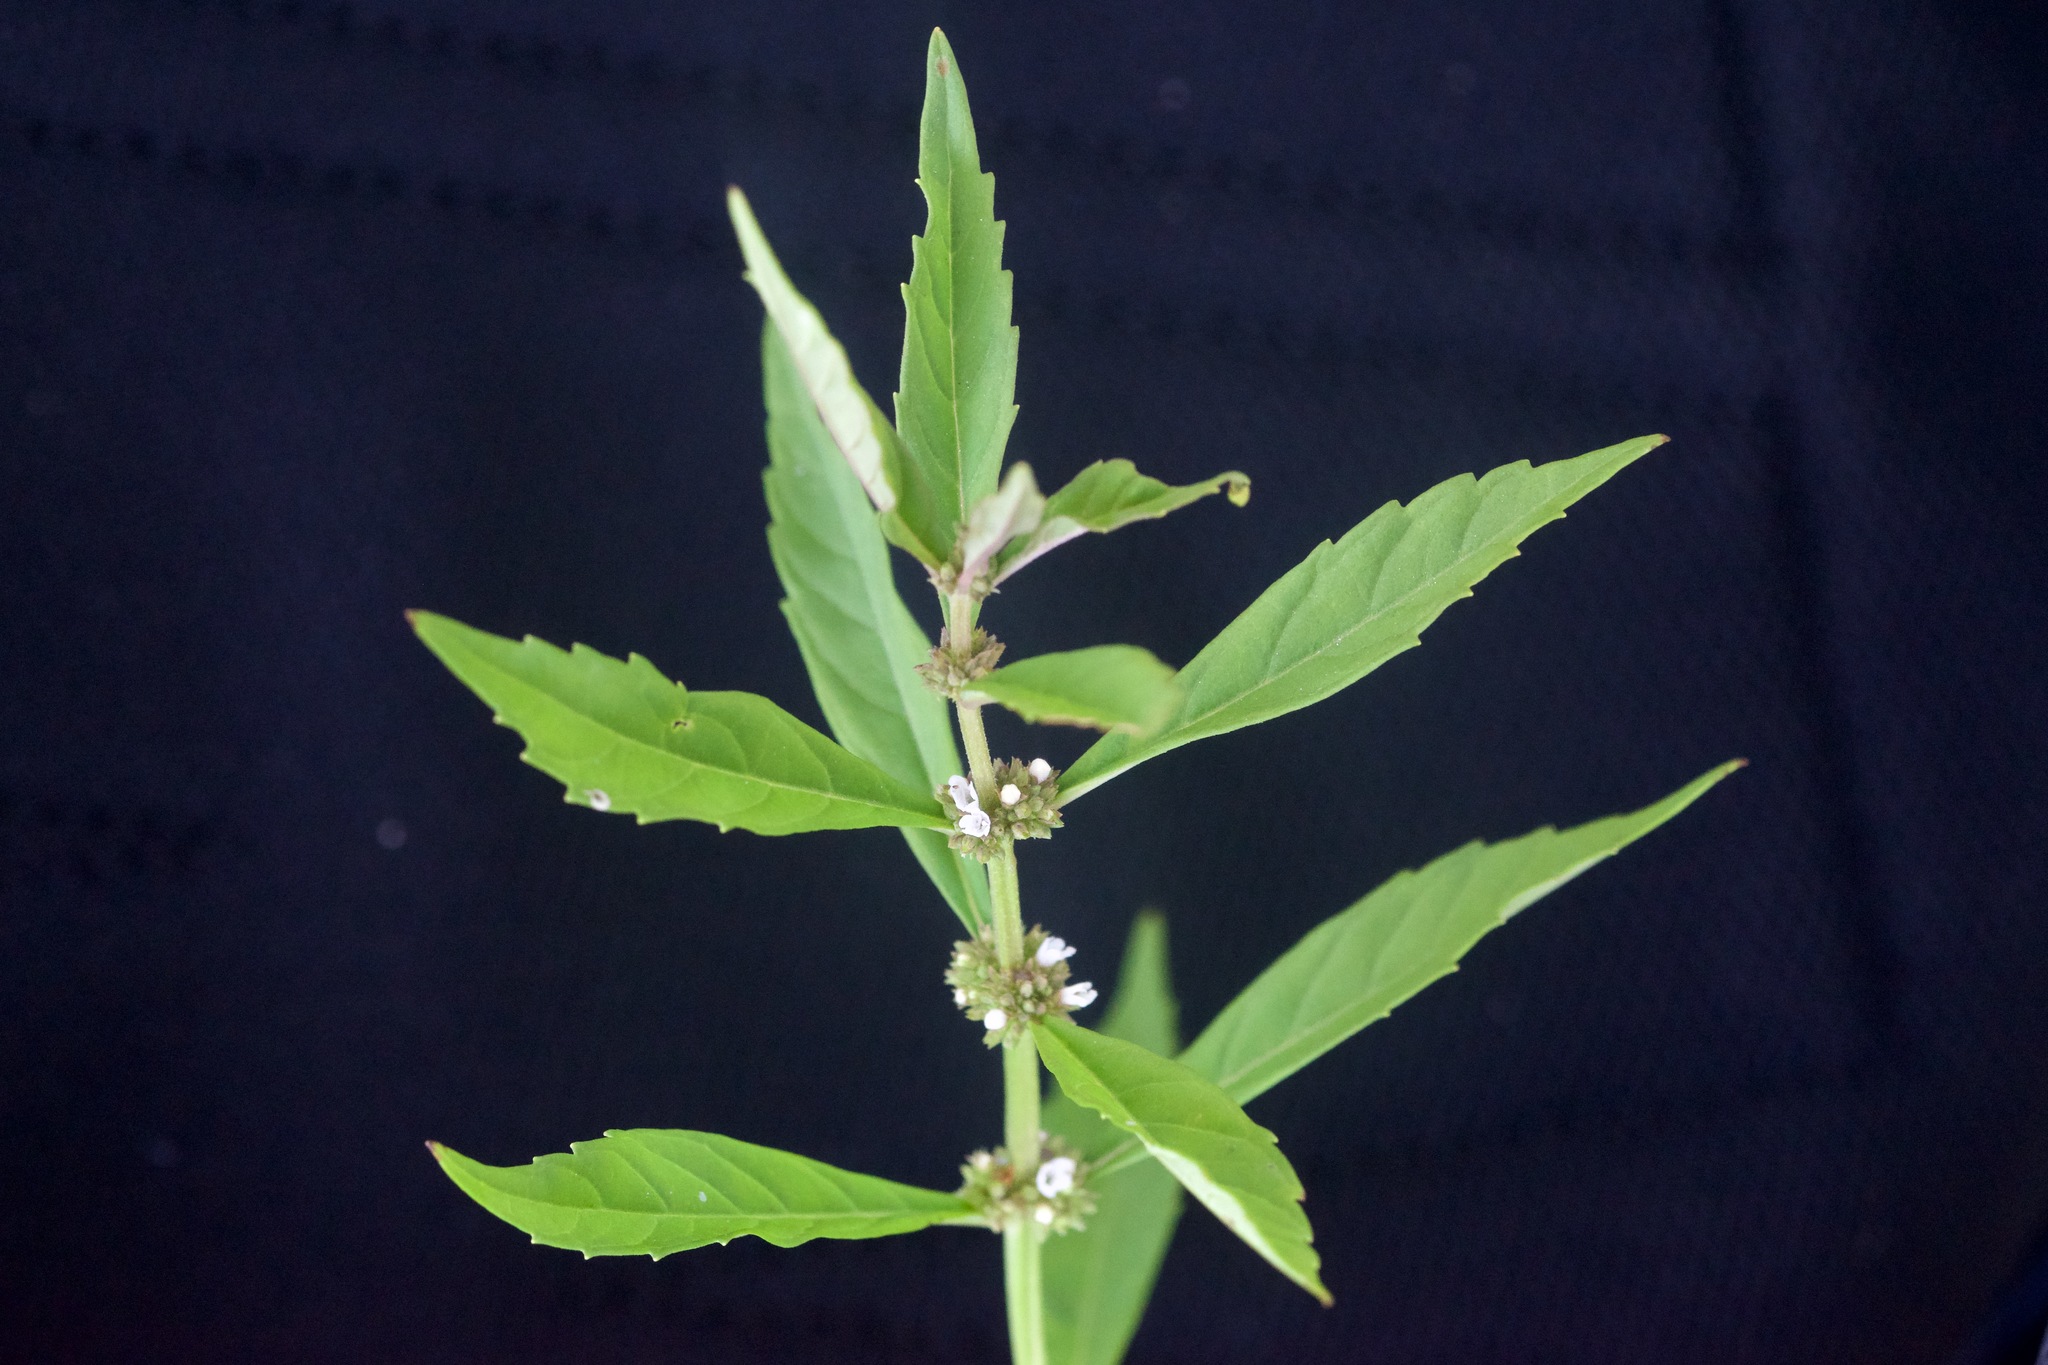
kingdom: Plantae
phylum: Tracheophyta
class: Magnoliopsida
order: Lamiales
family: Lamiaceae
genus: Lycopus
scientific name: Lycopus uniflorus
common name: Northern bugleweed
